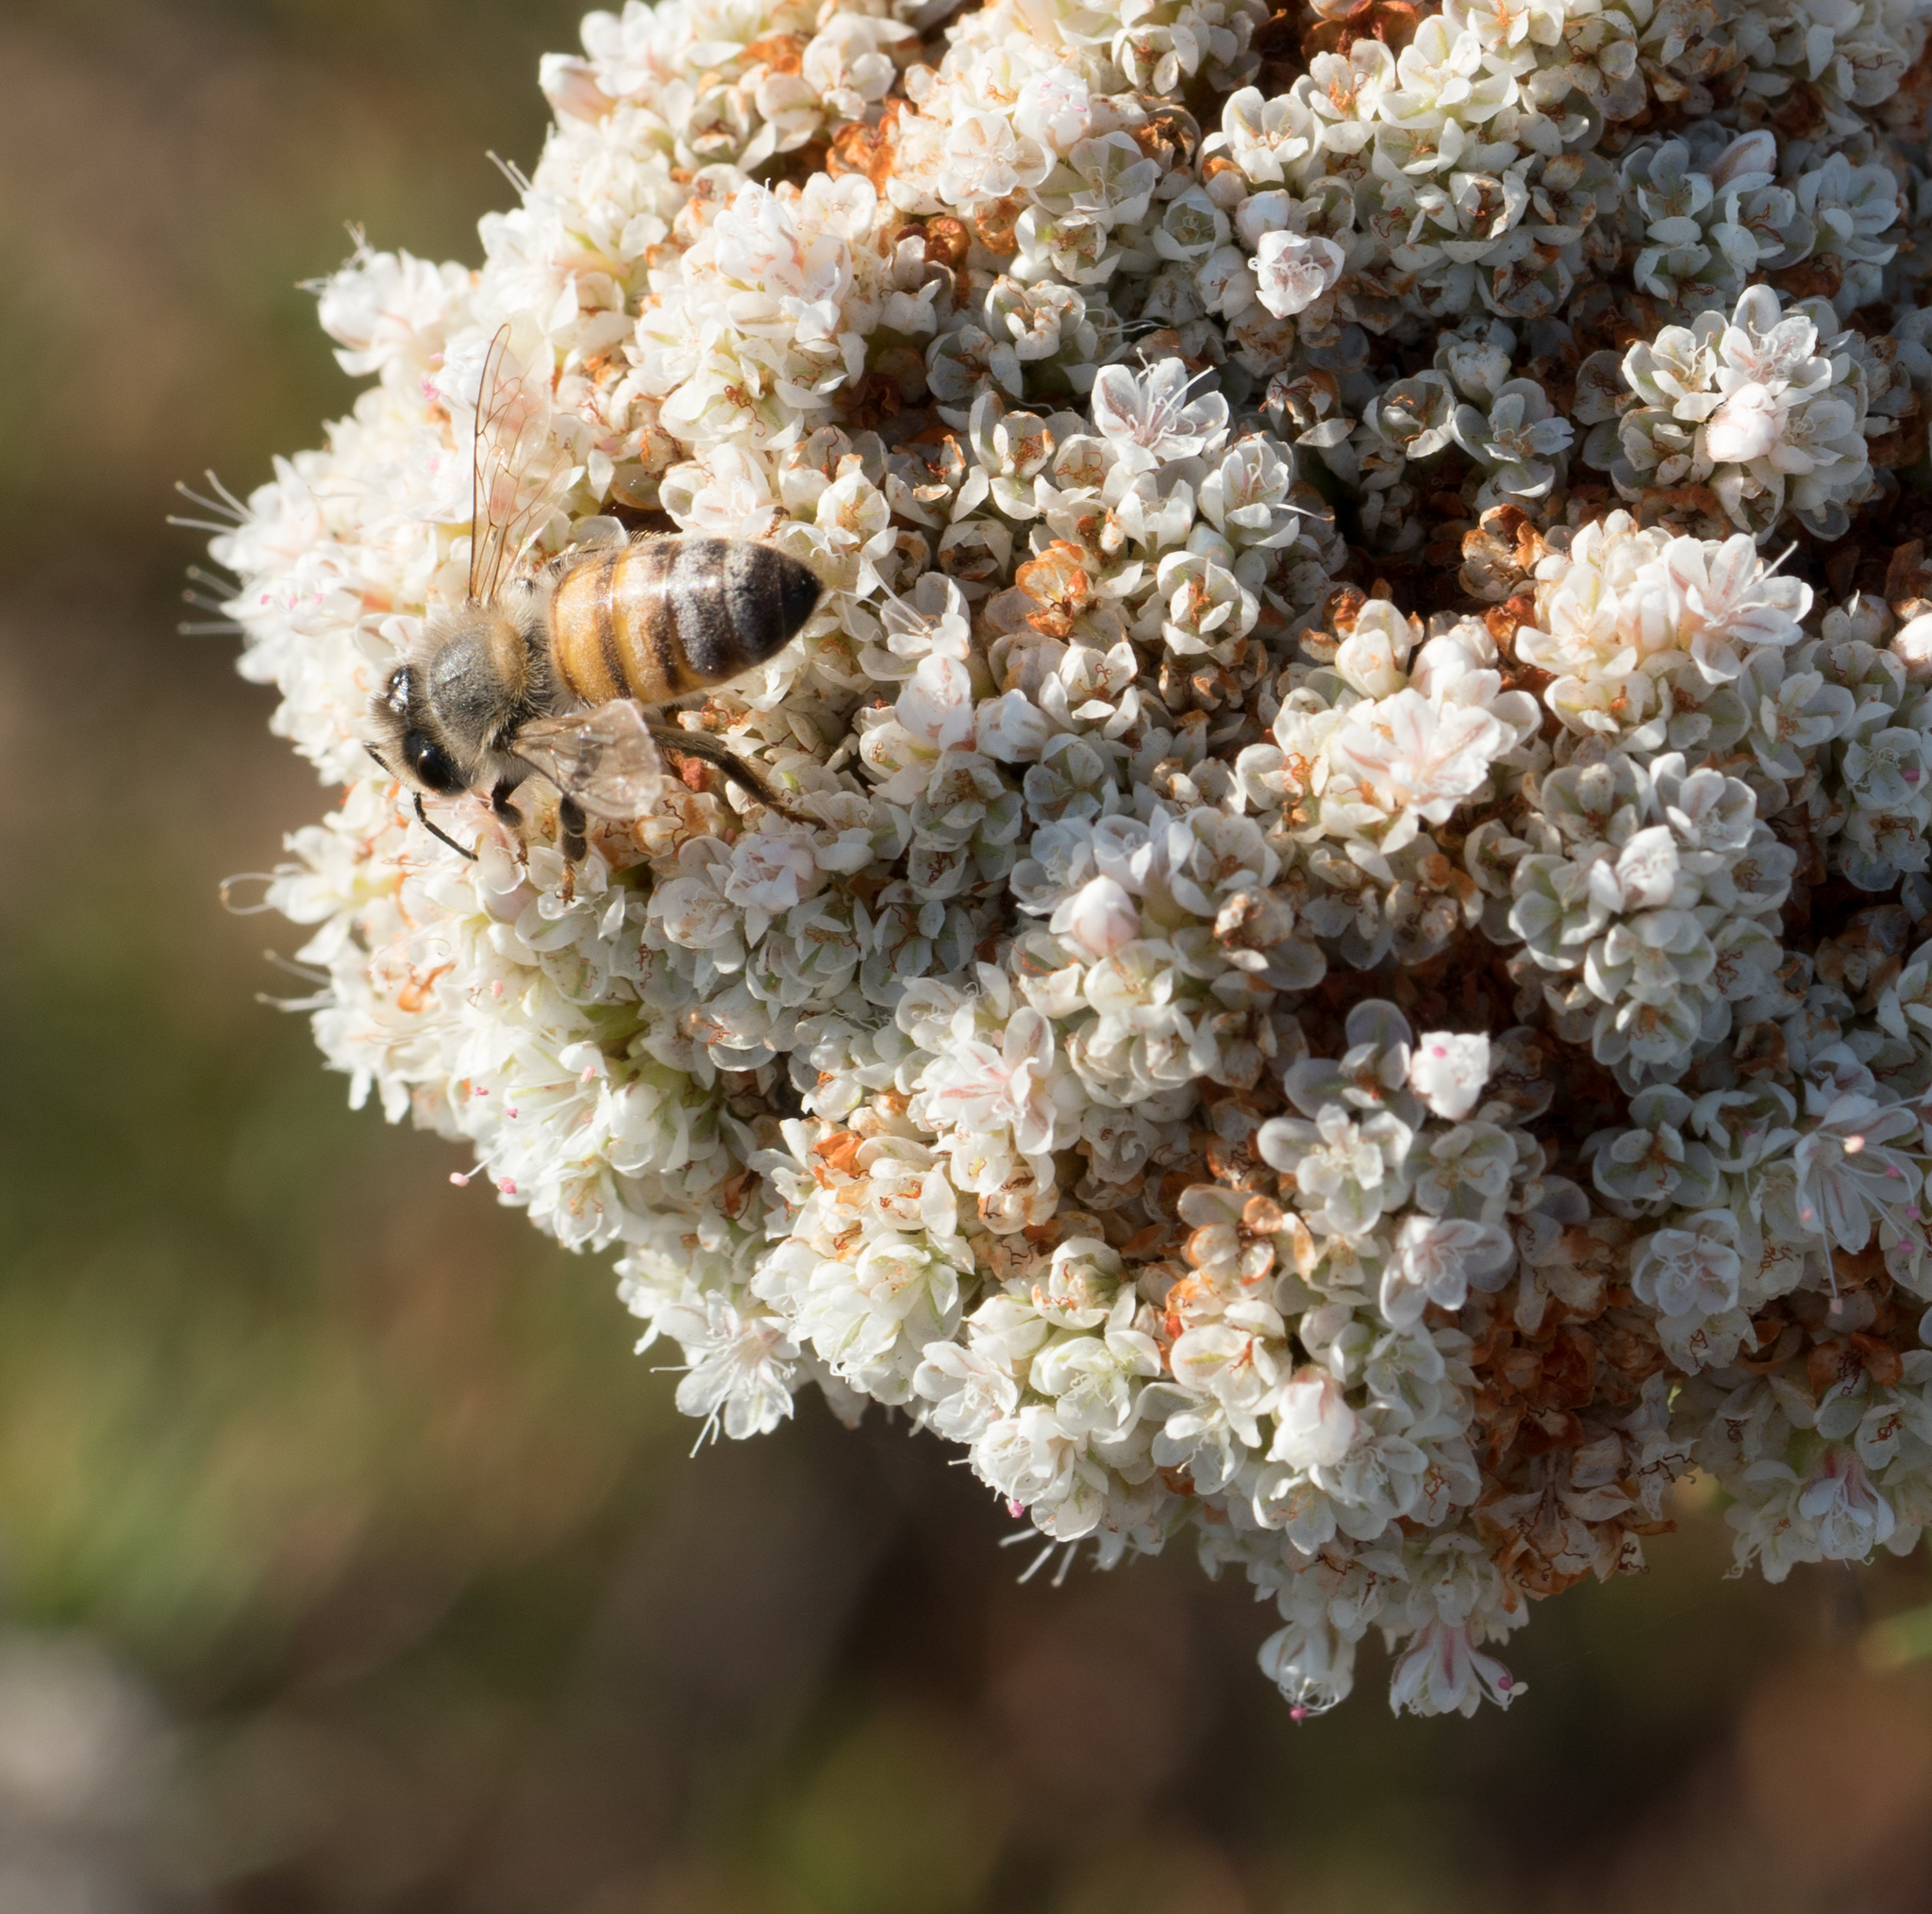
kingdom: Animalia
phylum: Arthropoda
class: Insecta
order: Hymenoptera
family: Apidae
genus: Apis
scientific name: Apis mellifera
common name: Honey bee
